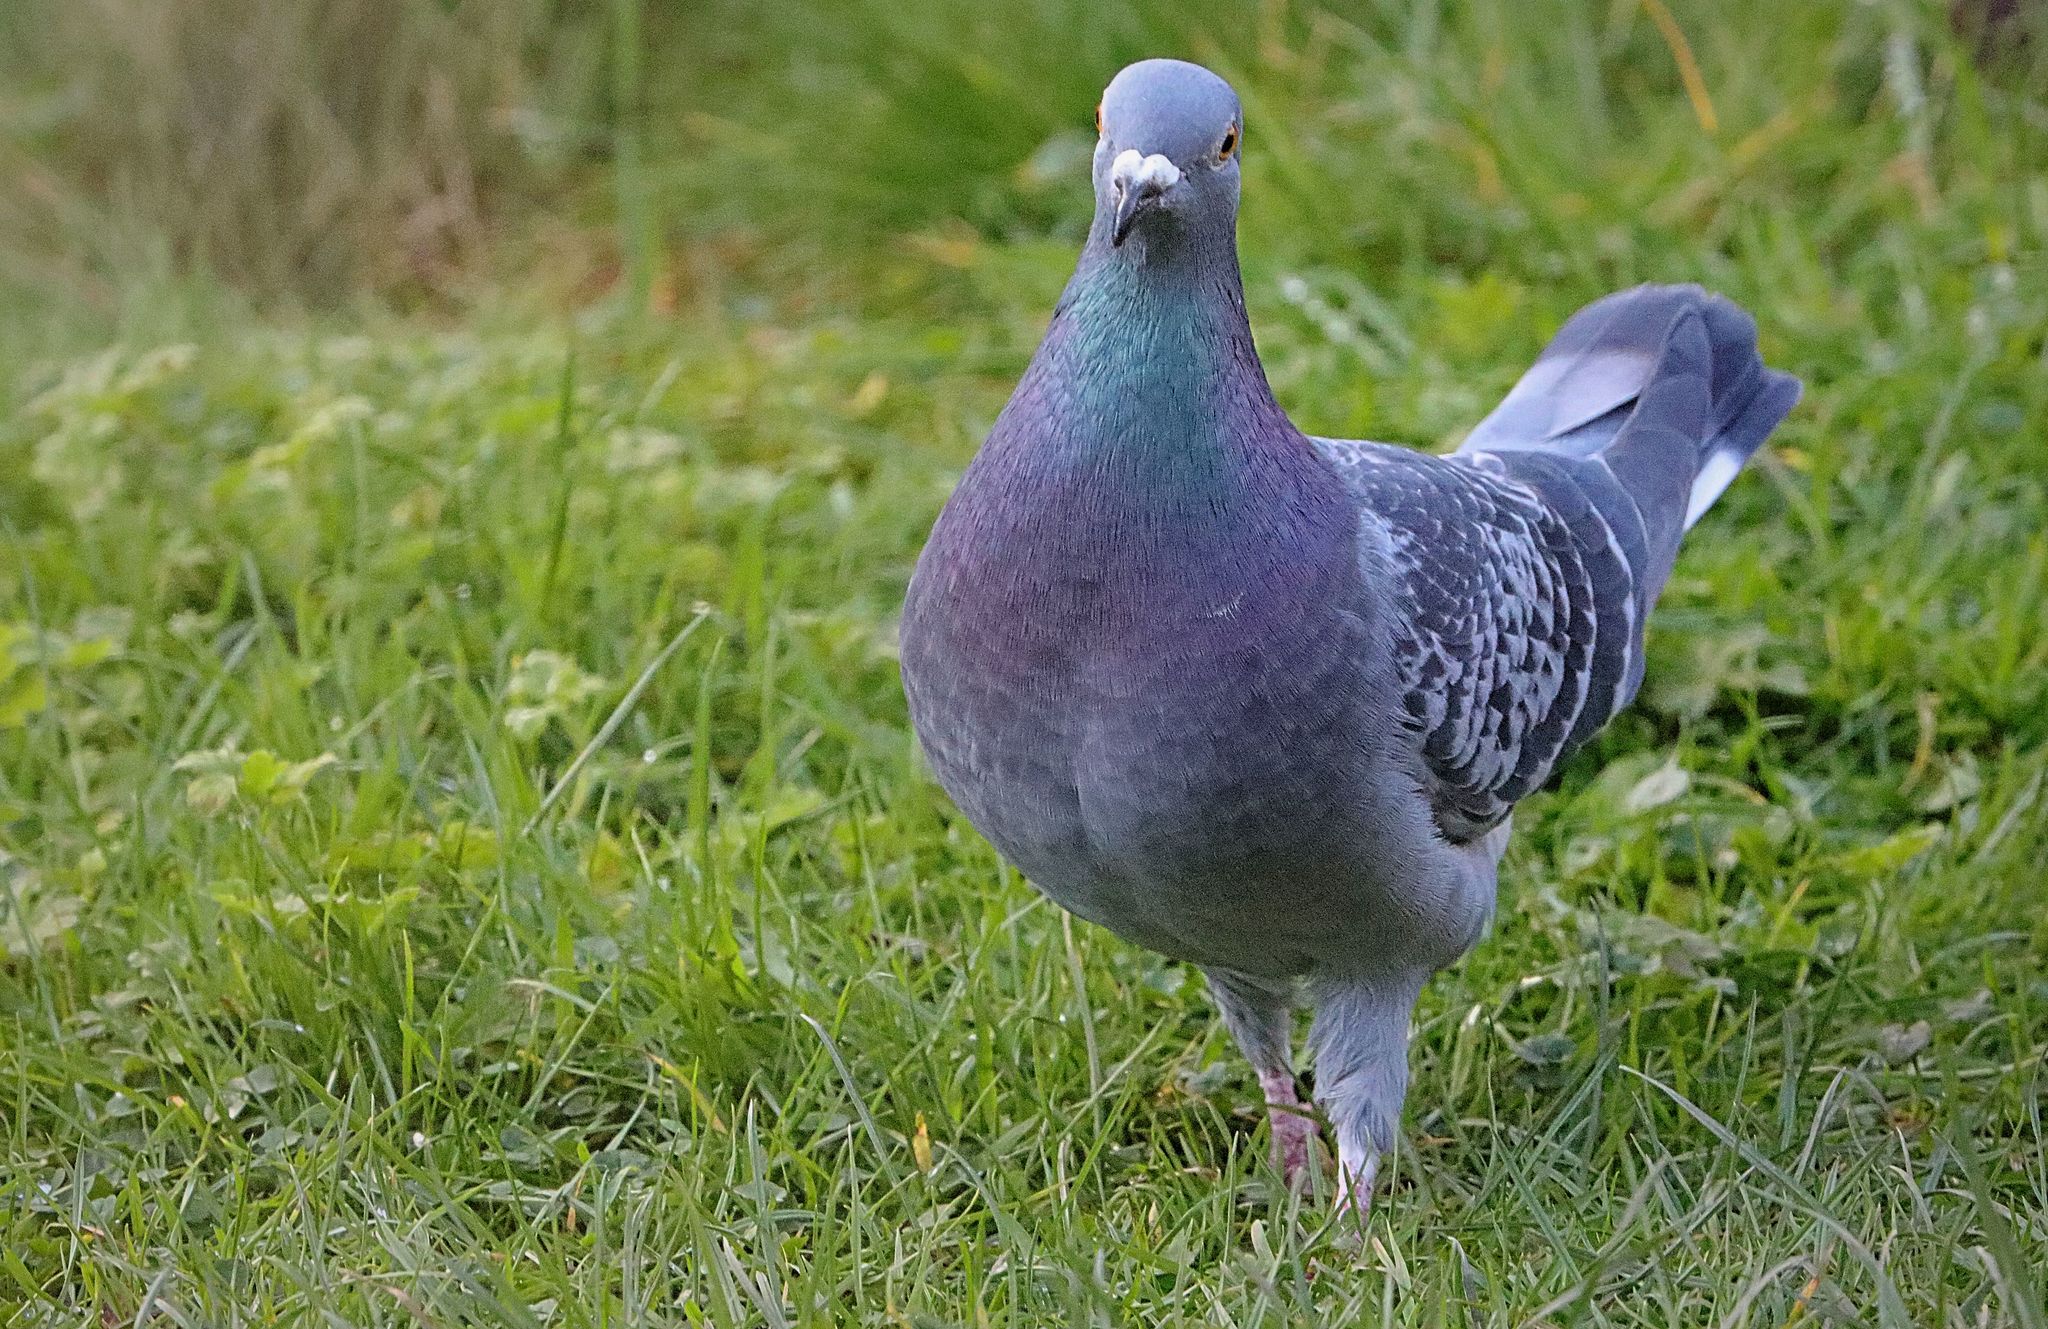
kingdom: Animalia
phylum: Chordata
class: Aves
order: Columbiformes
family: Columbidae
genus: Columba
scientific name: Columba livia
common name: Rock pigeon
